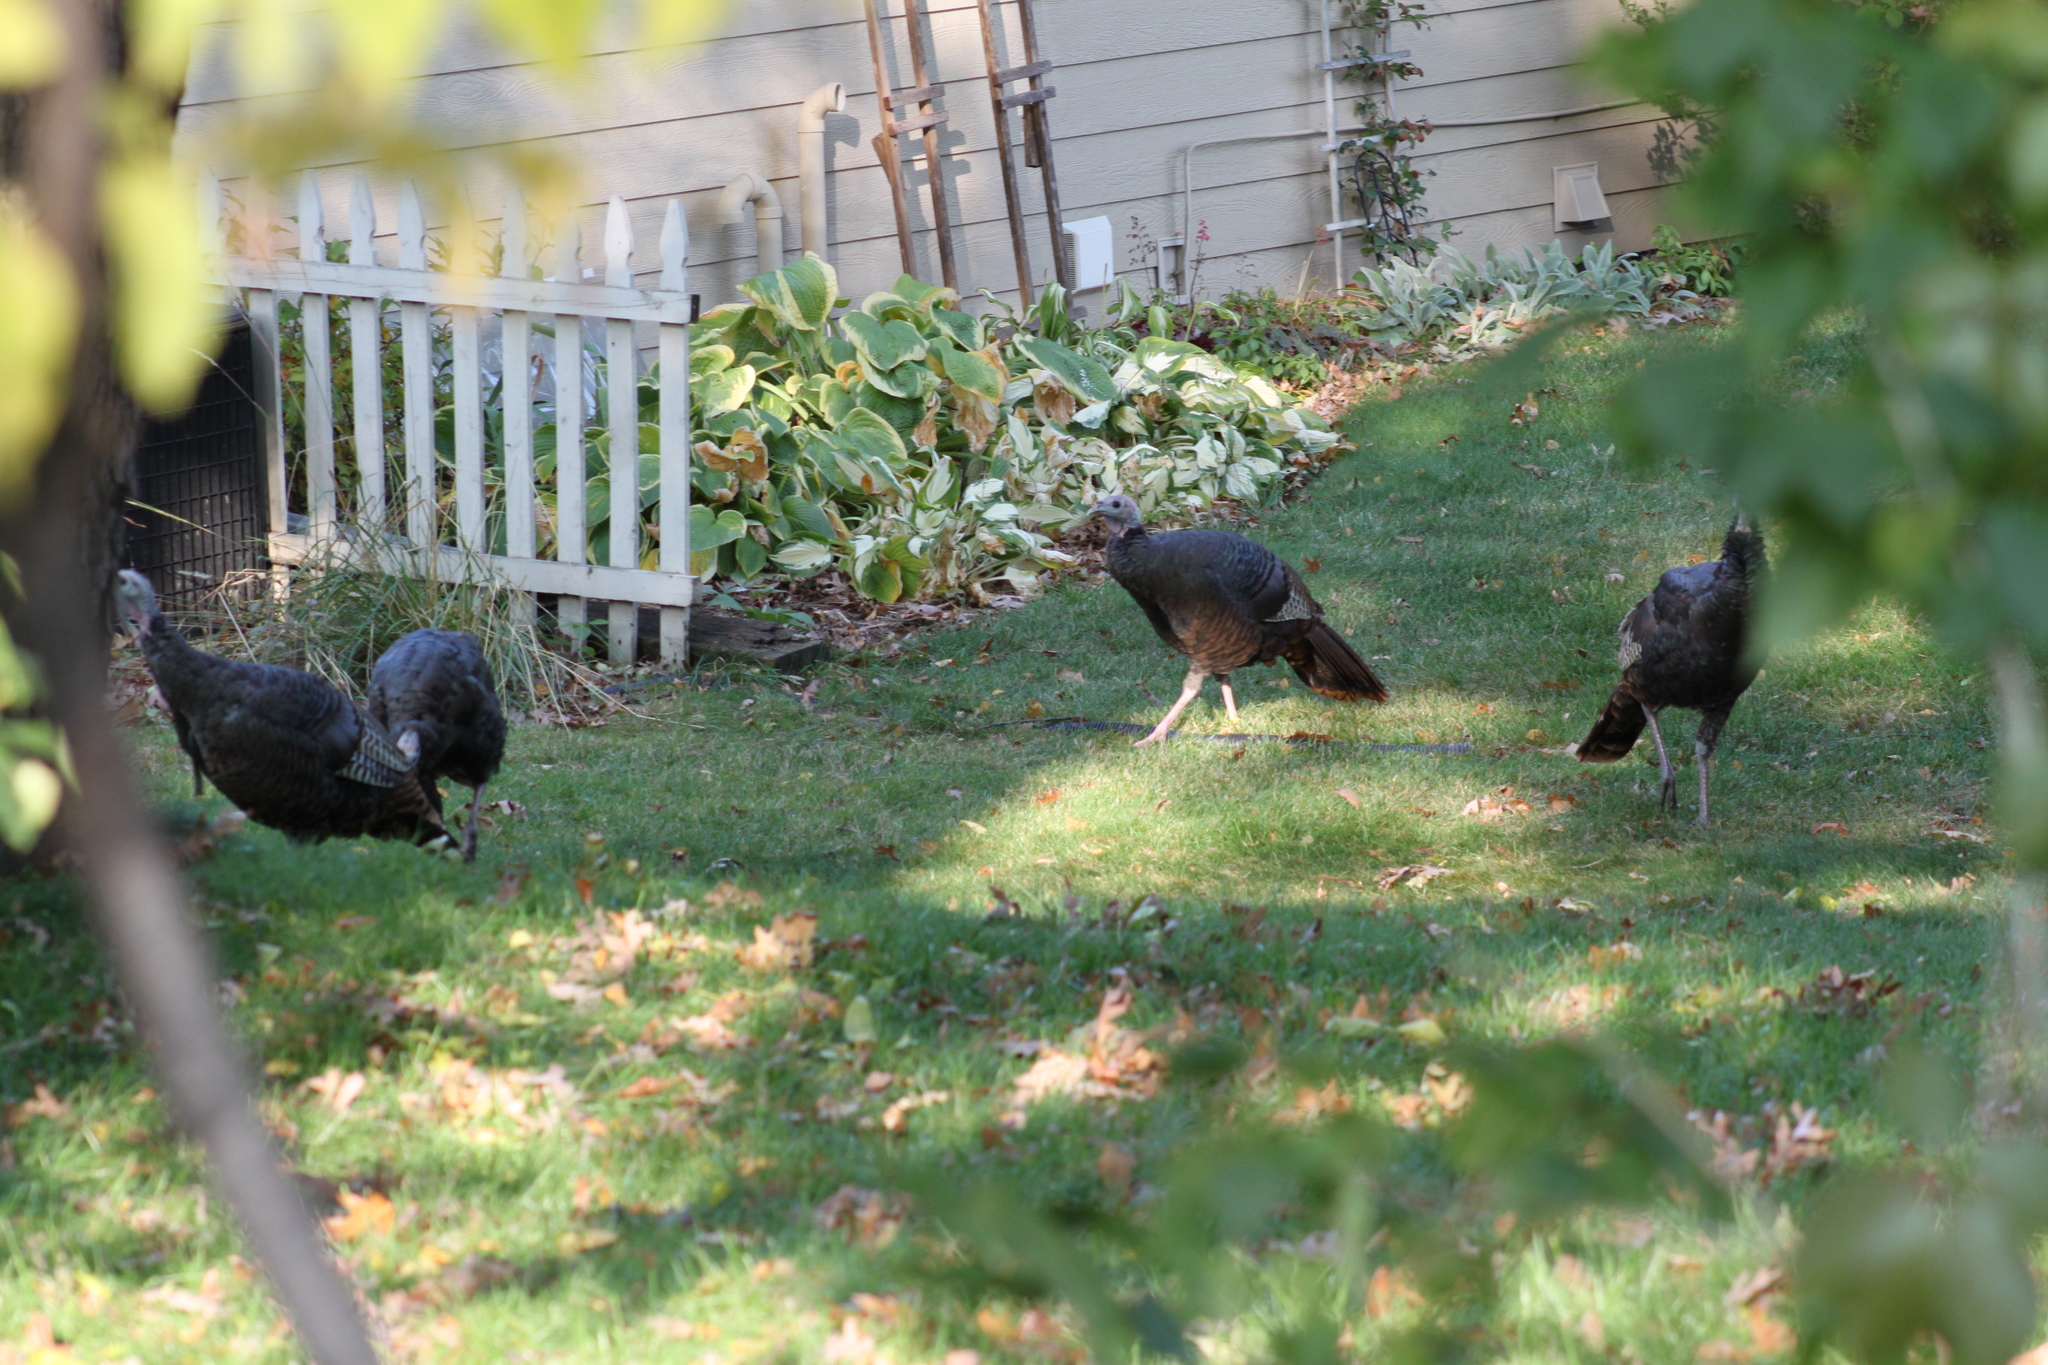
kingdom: Animalia
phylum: Chordata
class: Aves
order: Galliformes
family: Phasianidae
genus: Meleagris
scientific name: Meleagris gallopavo
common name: Wild turkey
